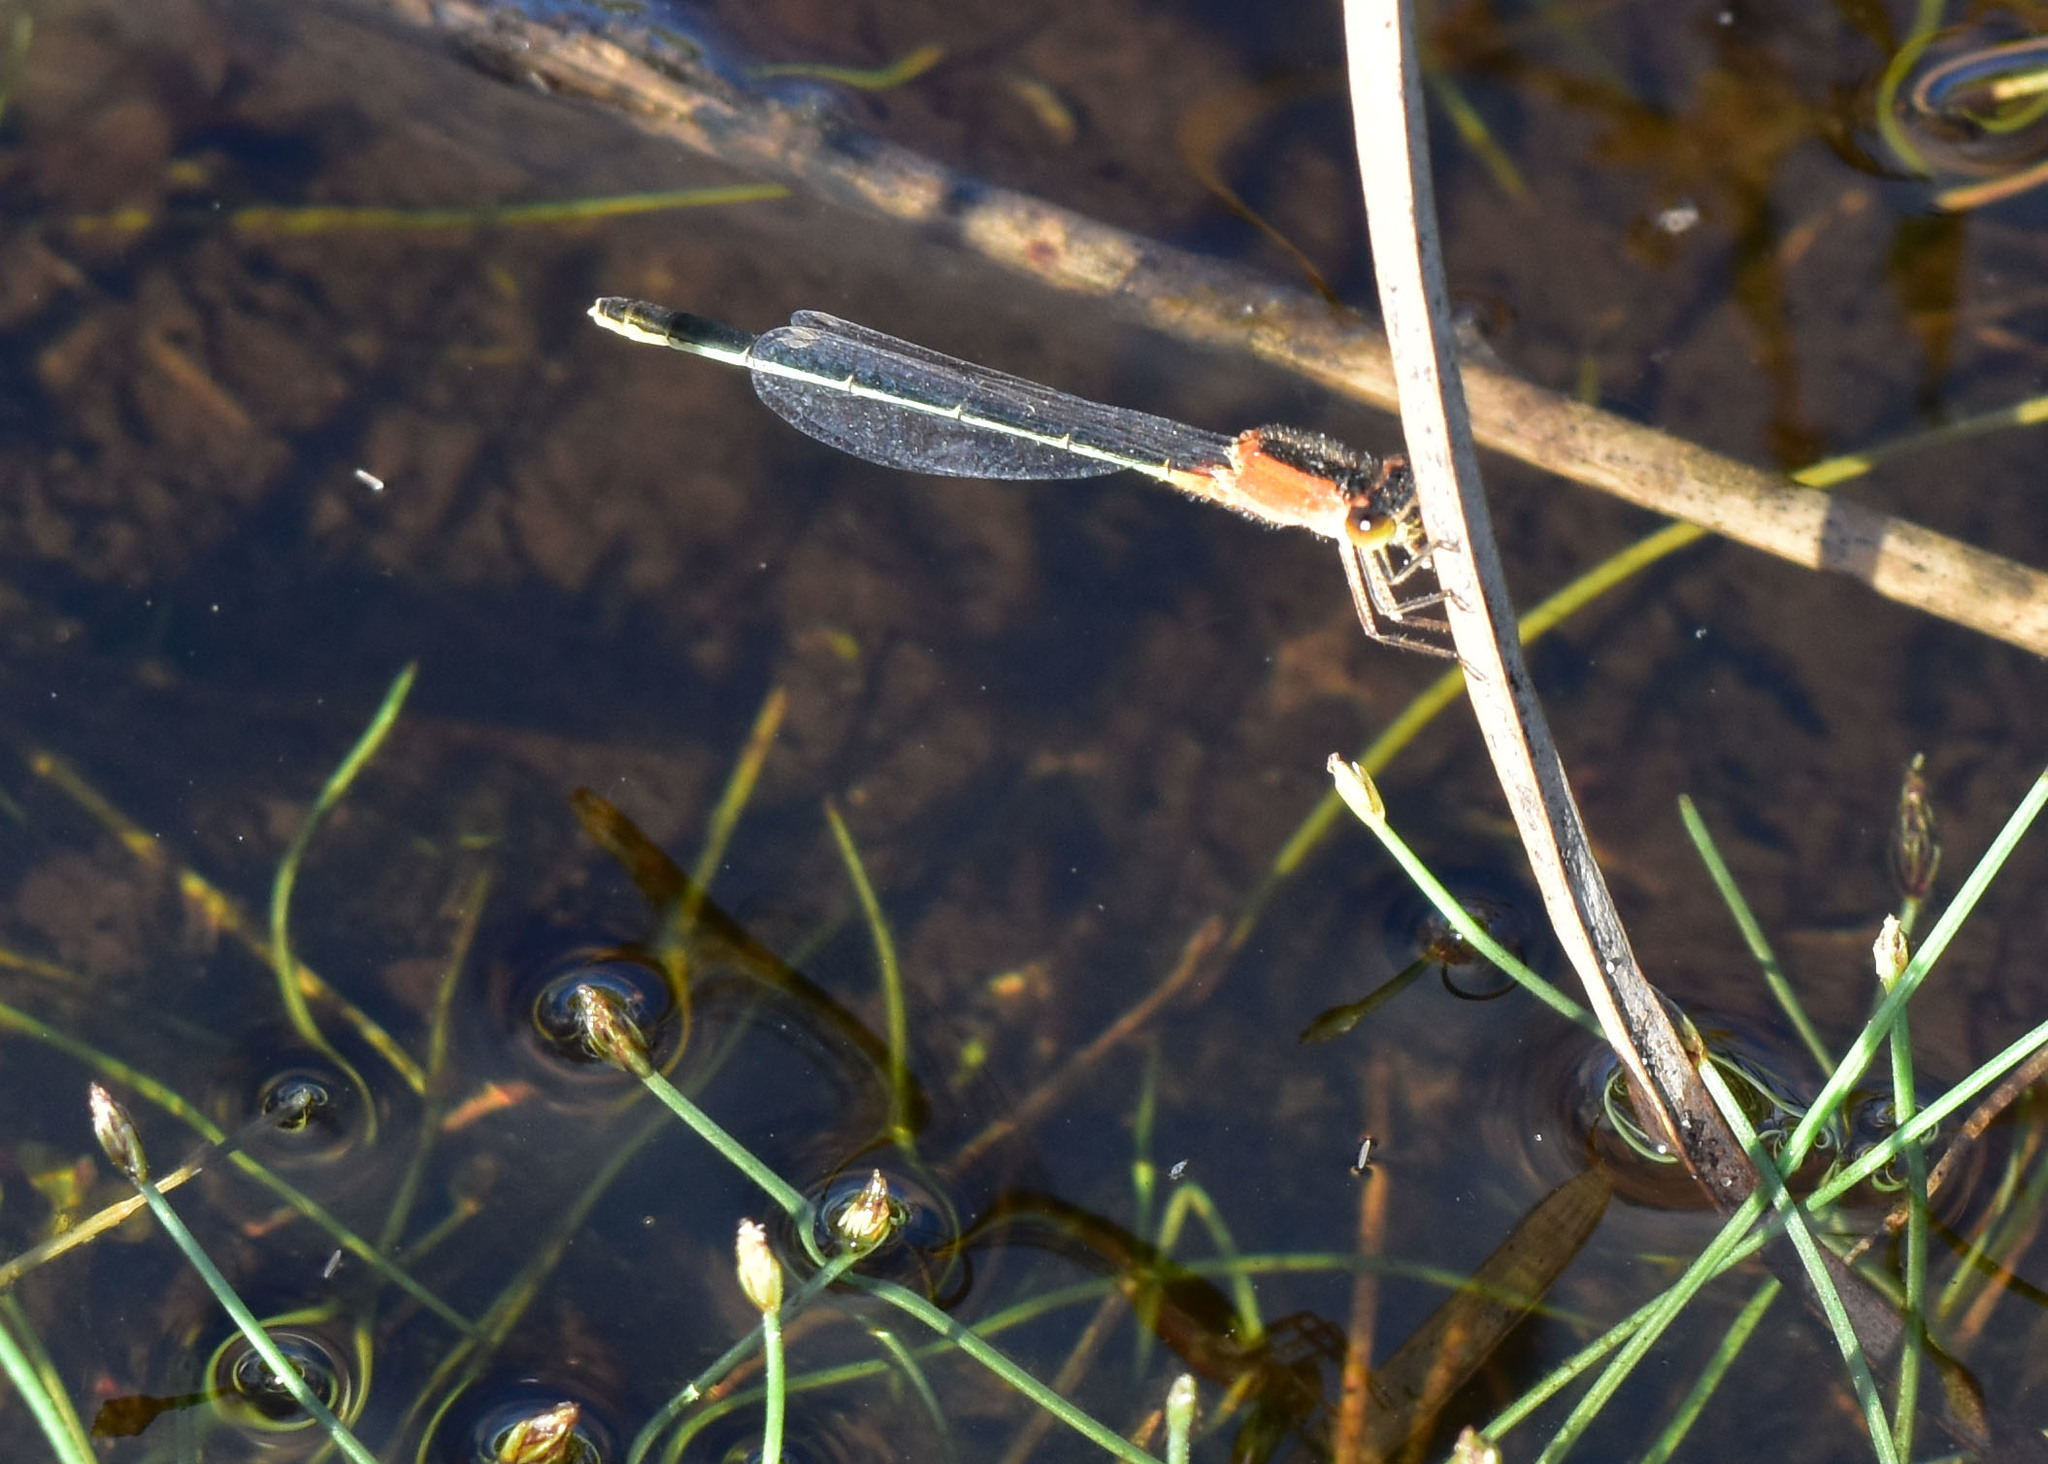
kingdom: Animalia
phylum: Arthropoda
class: Insecta
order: Odonata
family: Coenagrionidae
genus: Ischnura
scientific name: Ischnura ramburii
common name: Rambur's forktail
